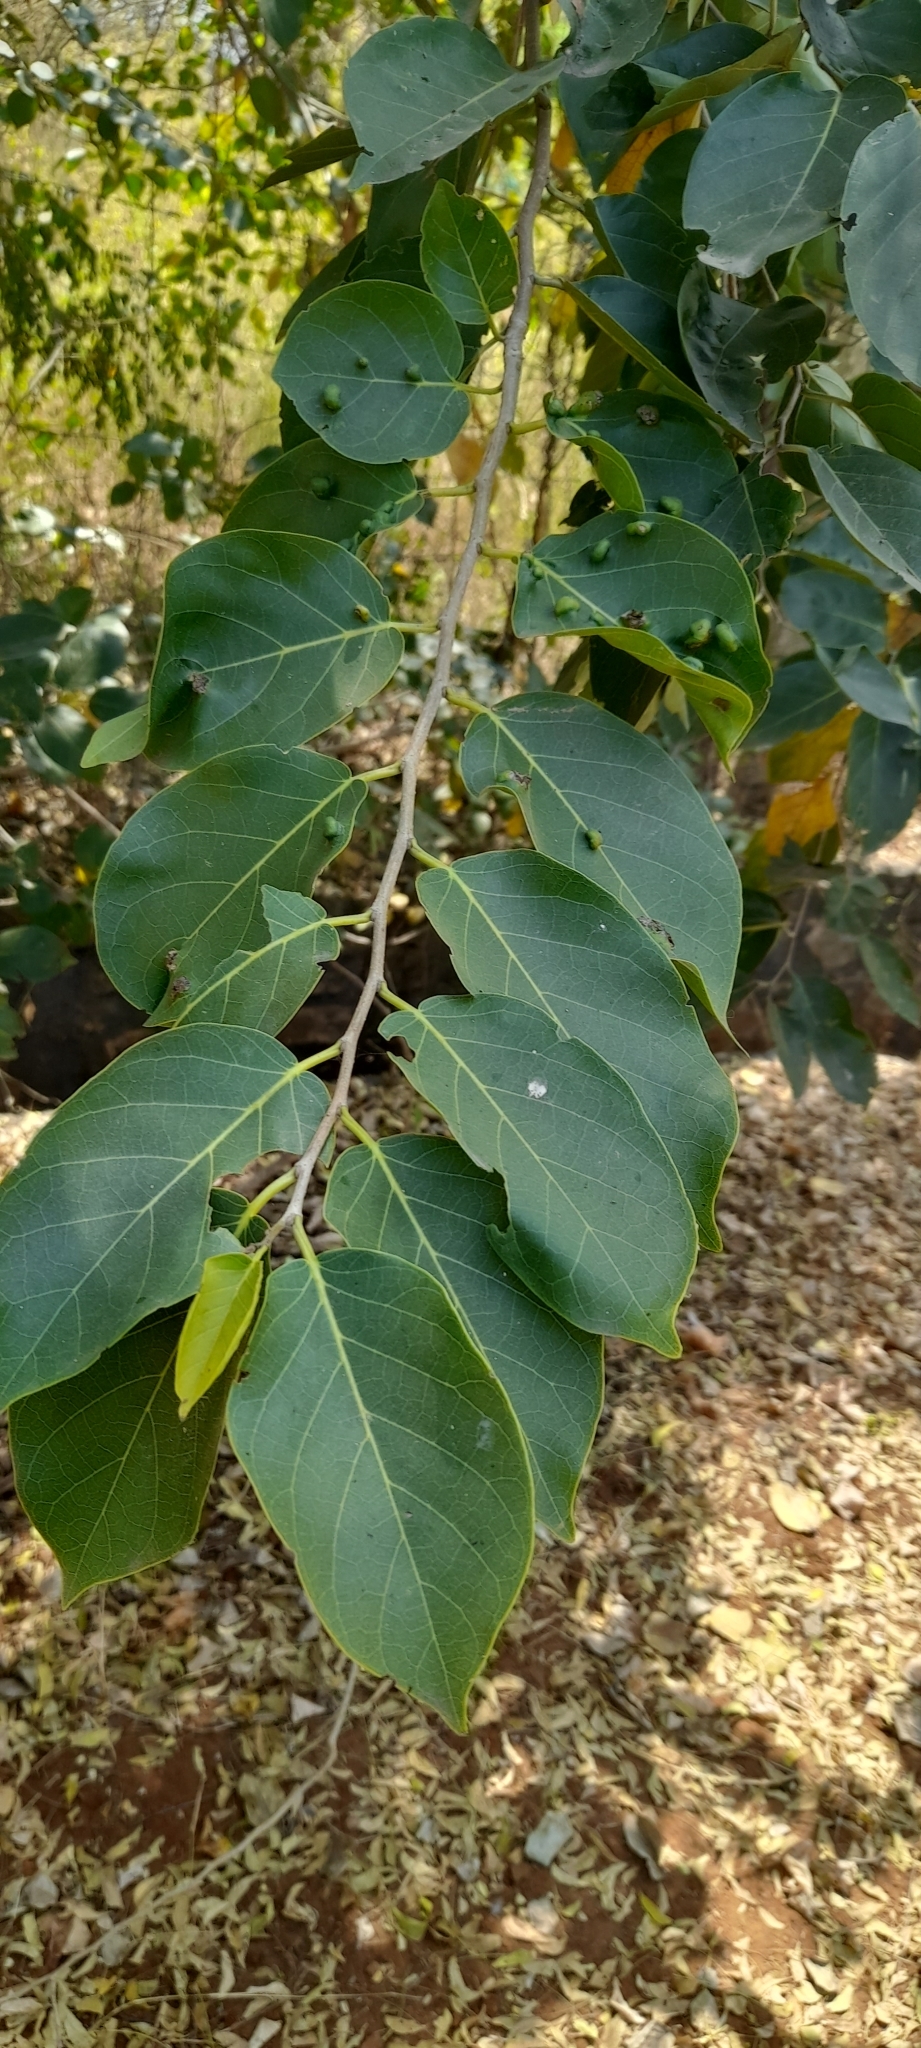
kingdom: Plantae
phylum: Tracheophyta
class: Magnoliopsida
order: Rosales
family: Ulmaceae
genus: Holoptelea
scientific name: Holoptelea integrifolia
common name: Indian-elm
